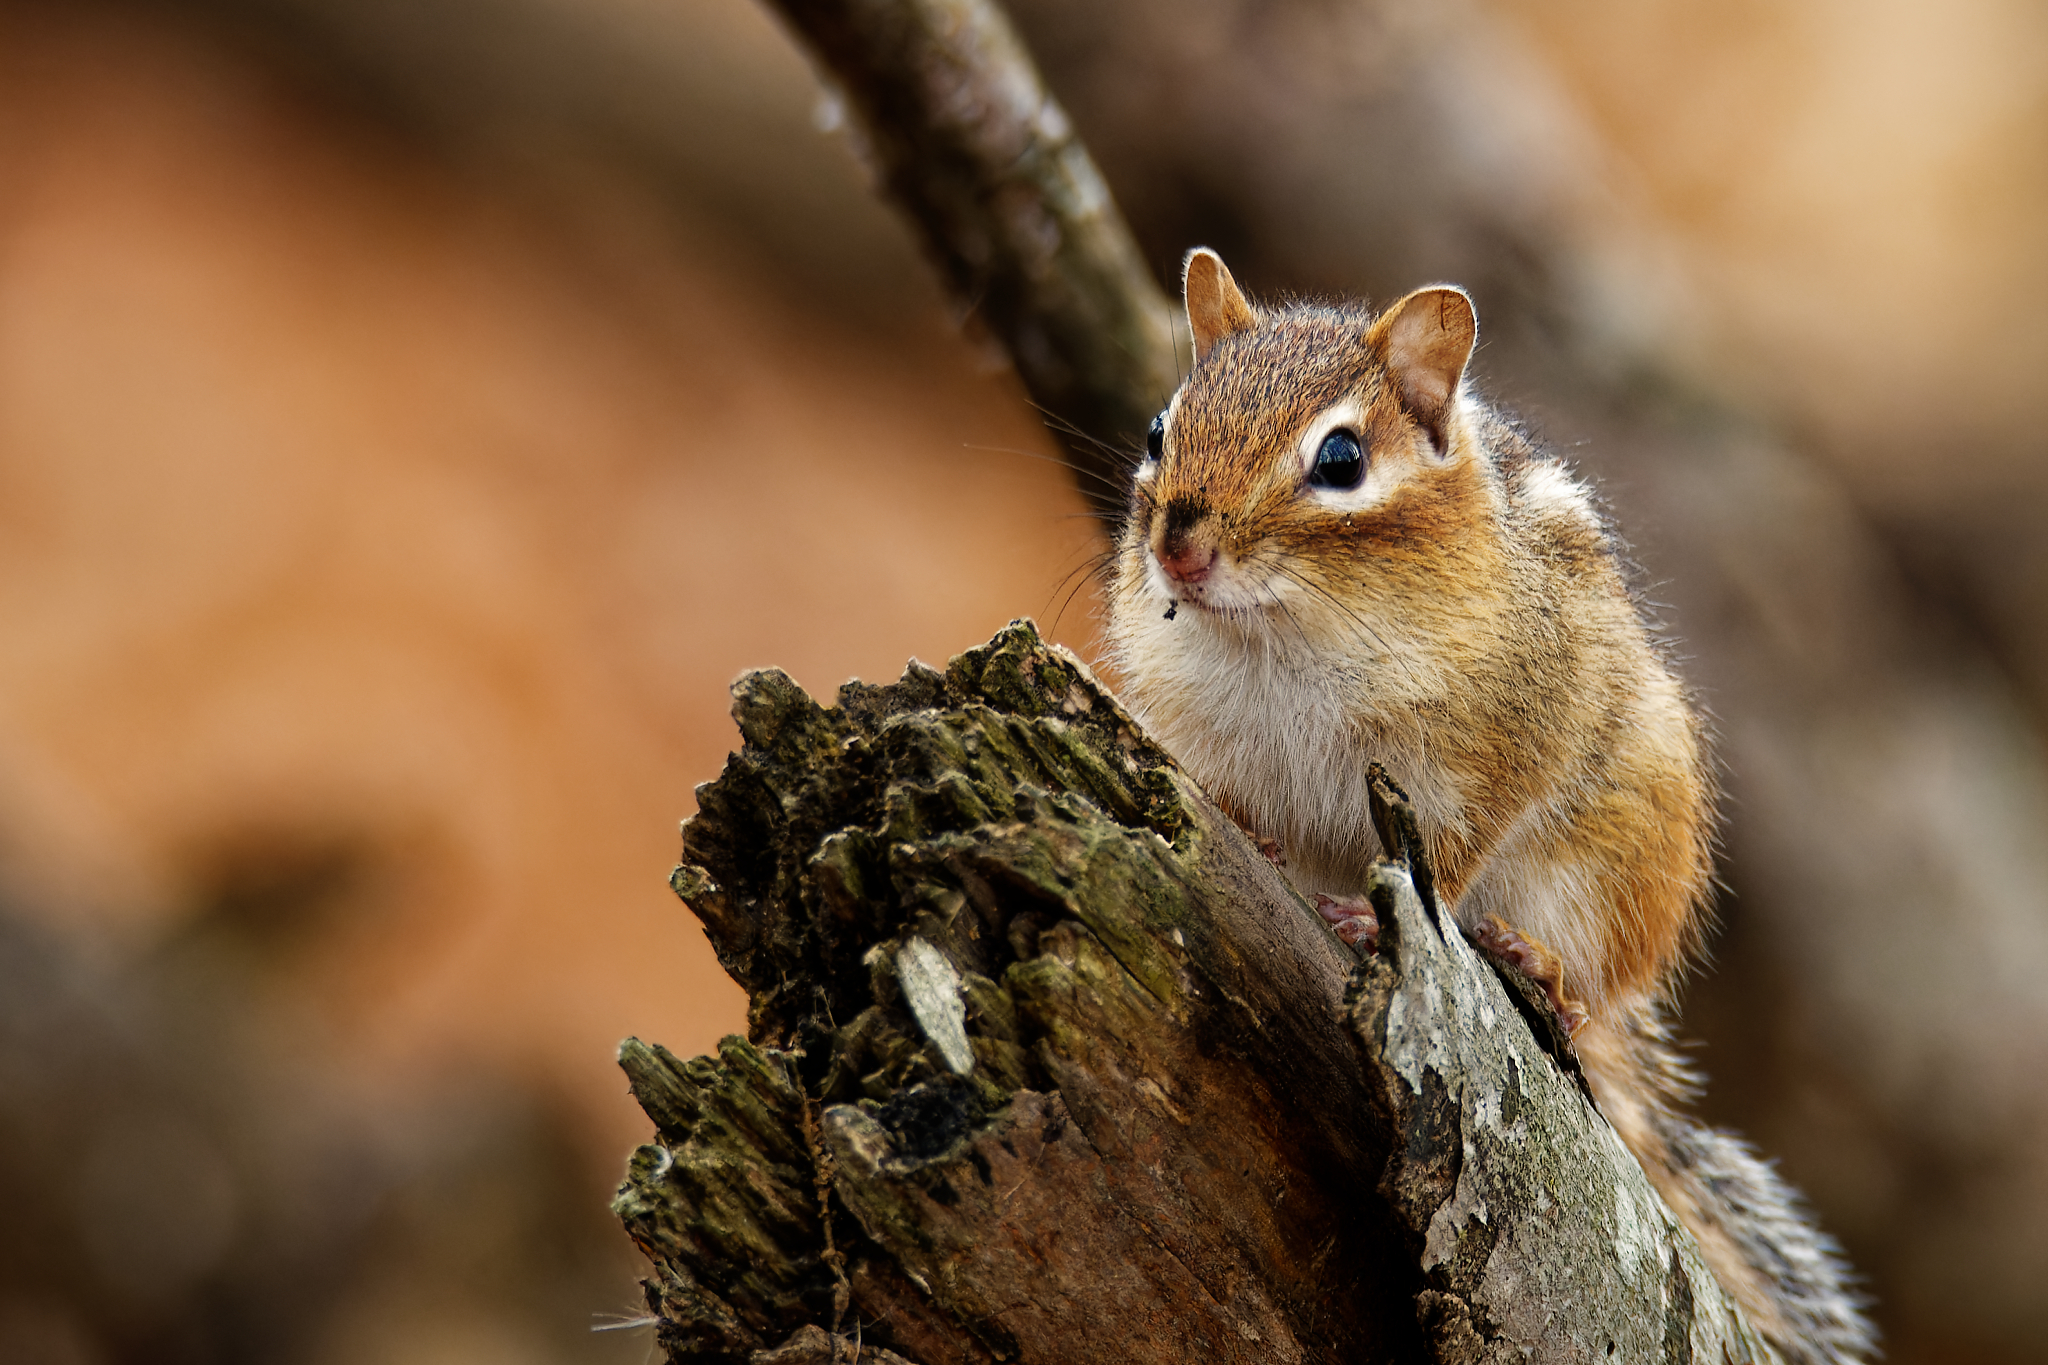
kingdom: Animalia
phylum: Chordata
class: Mammalia
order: Rodentia
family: Sciuridae
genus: Tamias
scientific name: Tamias striatus
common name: Eastern chipmunk
